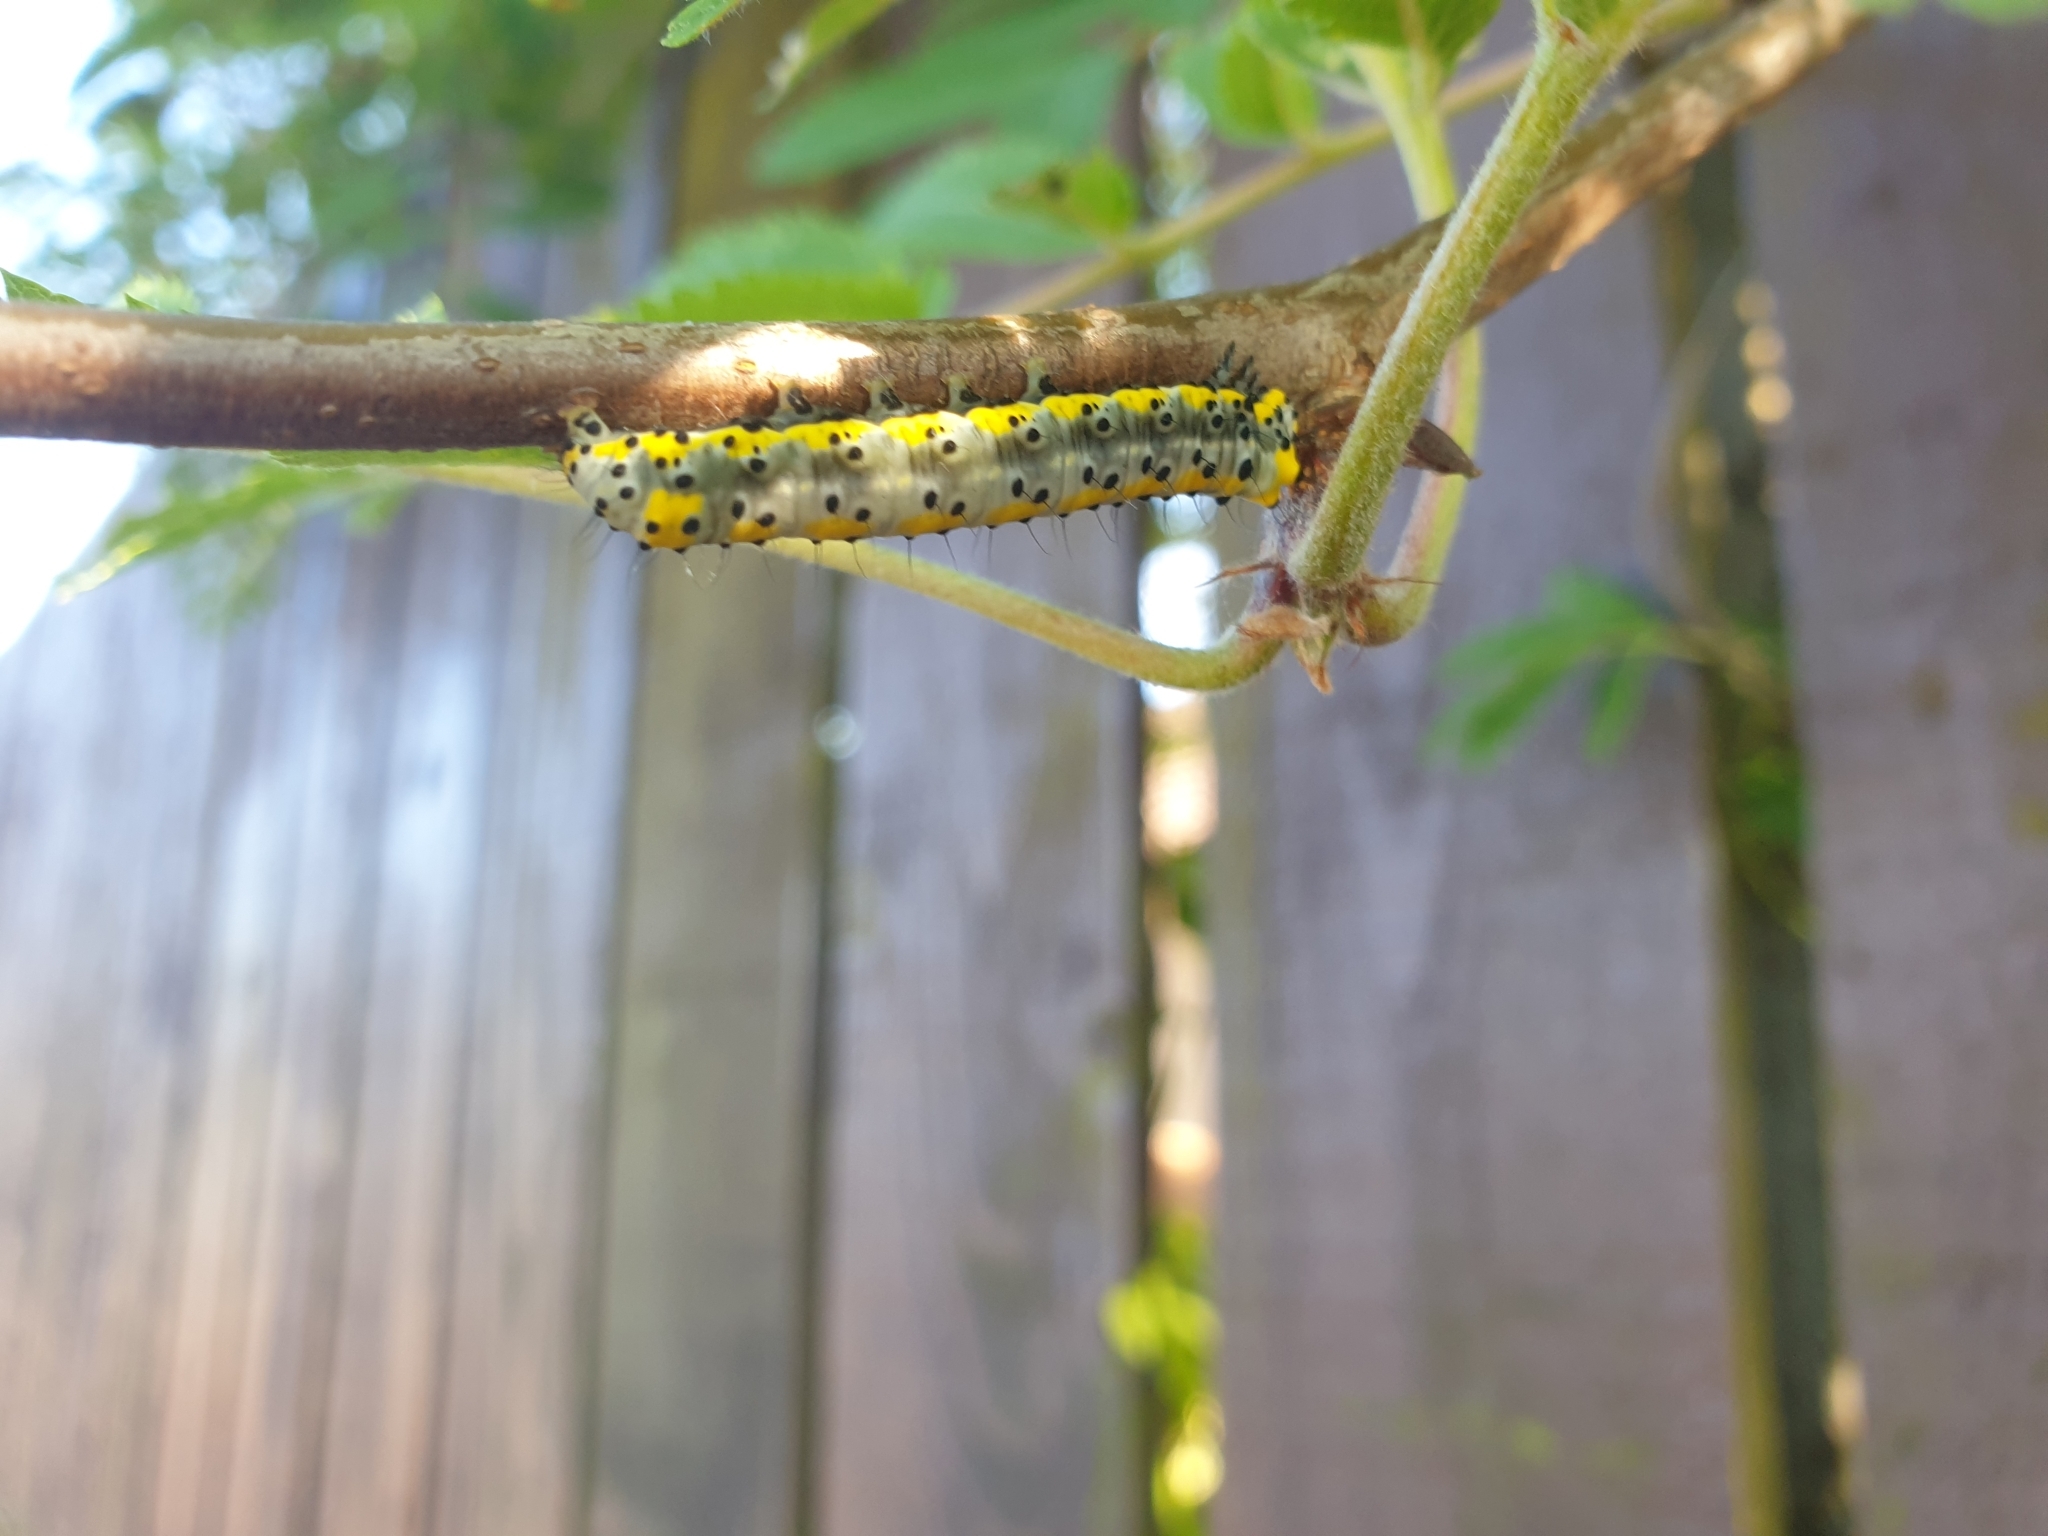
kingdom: Animalia
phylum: Arthropoda
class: Insecta
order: Lepidoptera
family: Noctuidae
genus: Diloba
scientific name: Diloba caeruleocephala
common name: Figure of eight
